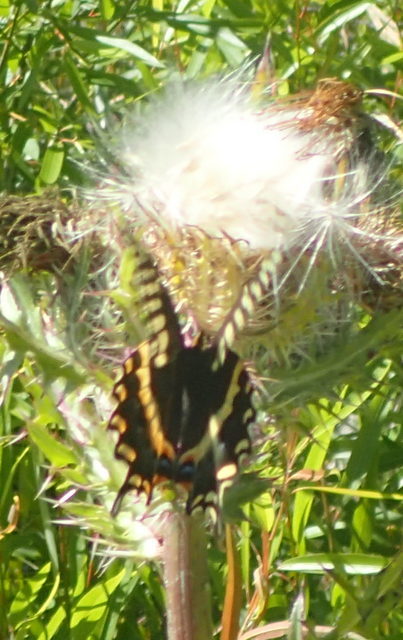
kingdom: Animalia
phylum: Arthropoda
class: Insecta
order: Lepidoptera
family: Papilionidae
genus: Papilio
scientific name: Papilio palamedes
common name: Palamedes swallowtail
